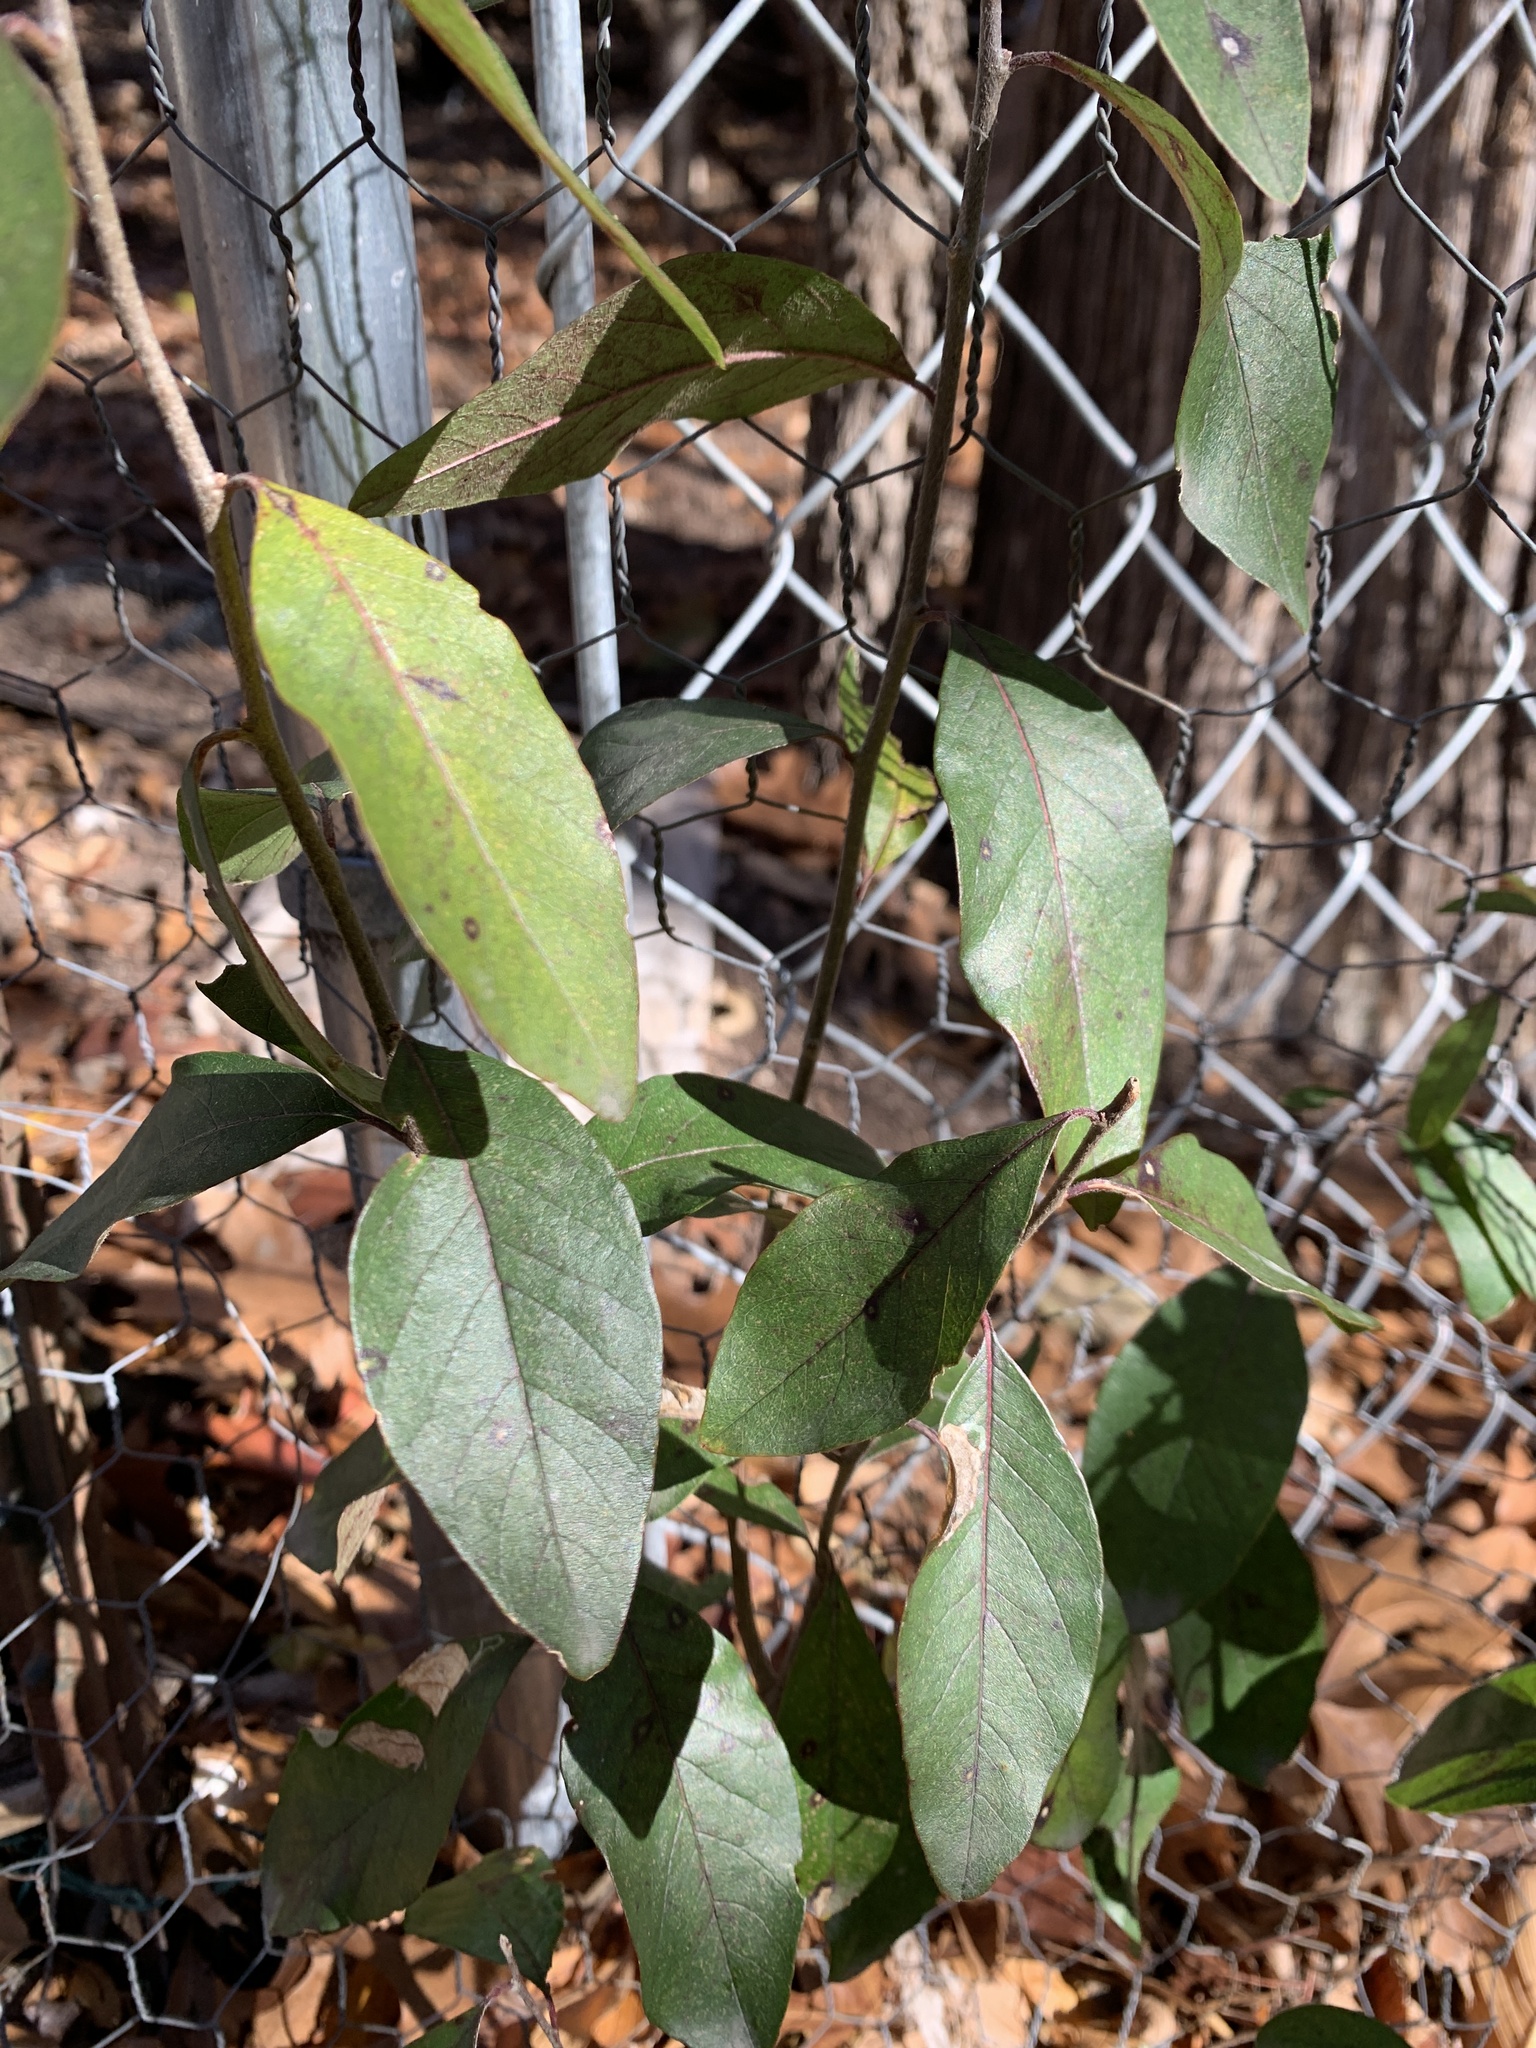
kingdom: Plantae
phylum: Tracheophyta
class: Magnoliopsida
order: Ericales
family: Sapotaceae
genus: Sideroxylon
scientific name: Sideroxylon lanuginosum
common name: Chittamwood
